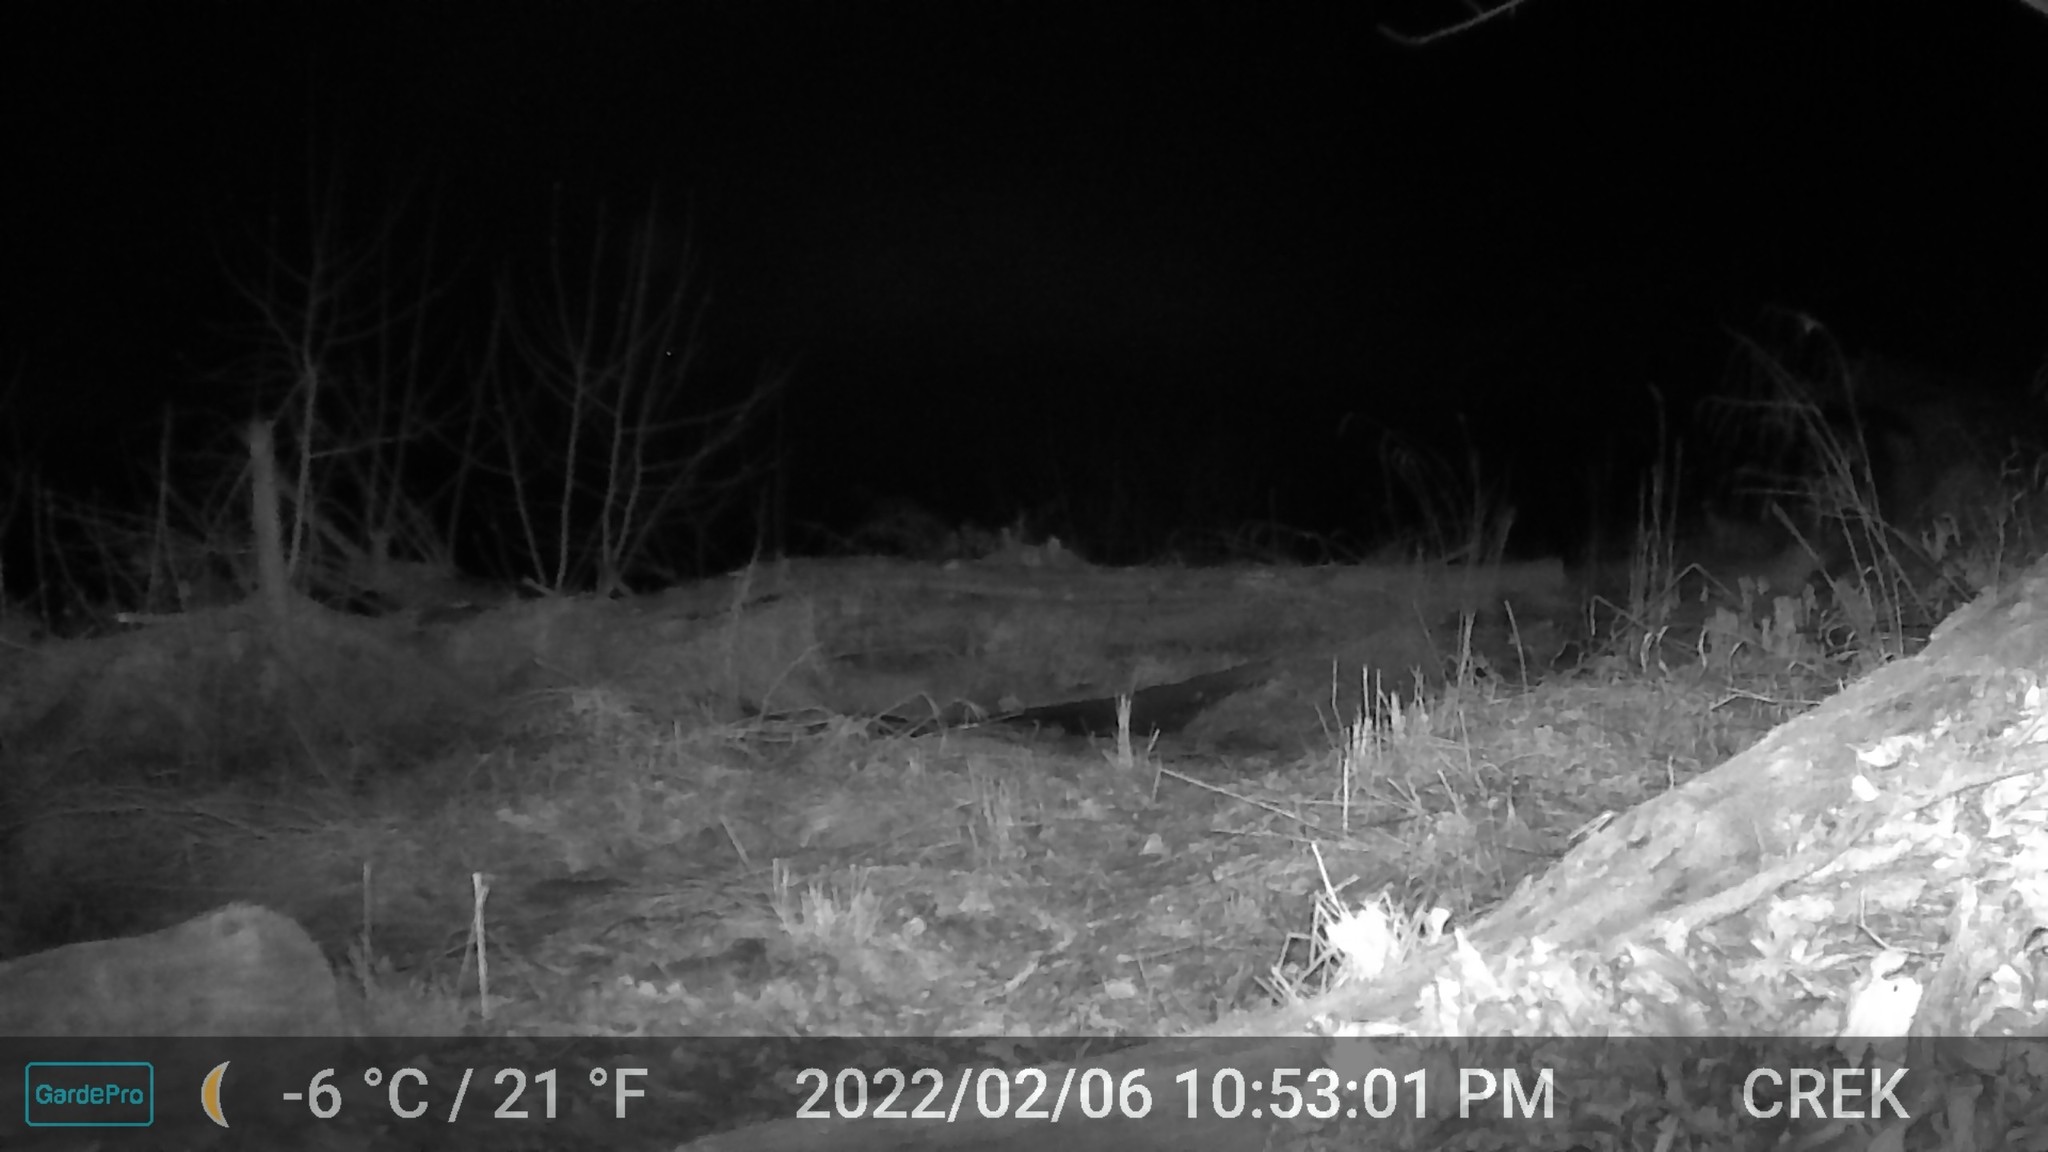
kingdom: Animalia
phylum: Chordata
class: Mammalia
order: Carnivora
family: Canidae
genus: Vulpes
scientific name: Vulpes vulpes
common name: Red fox
